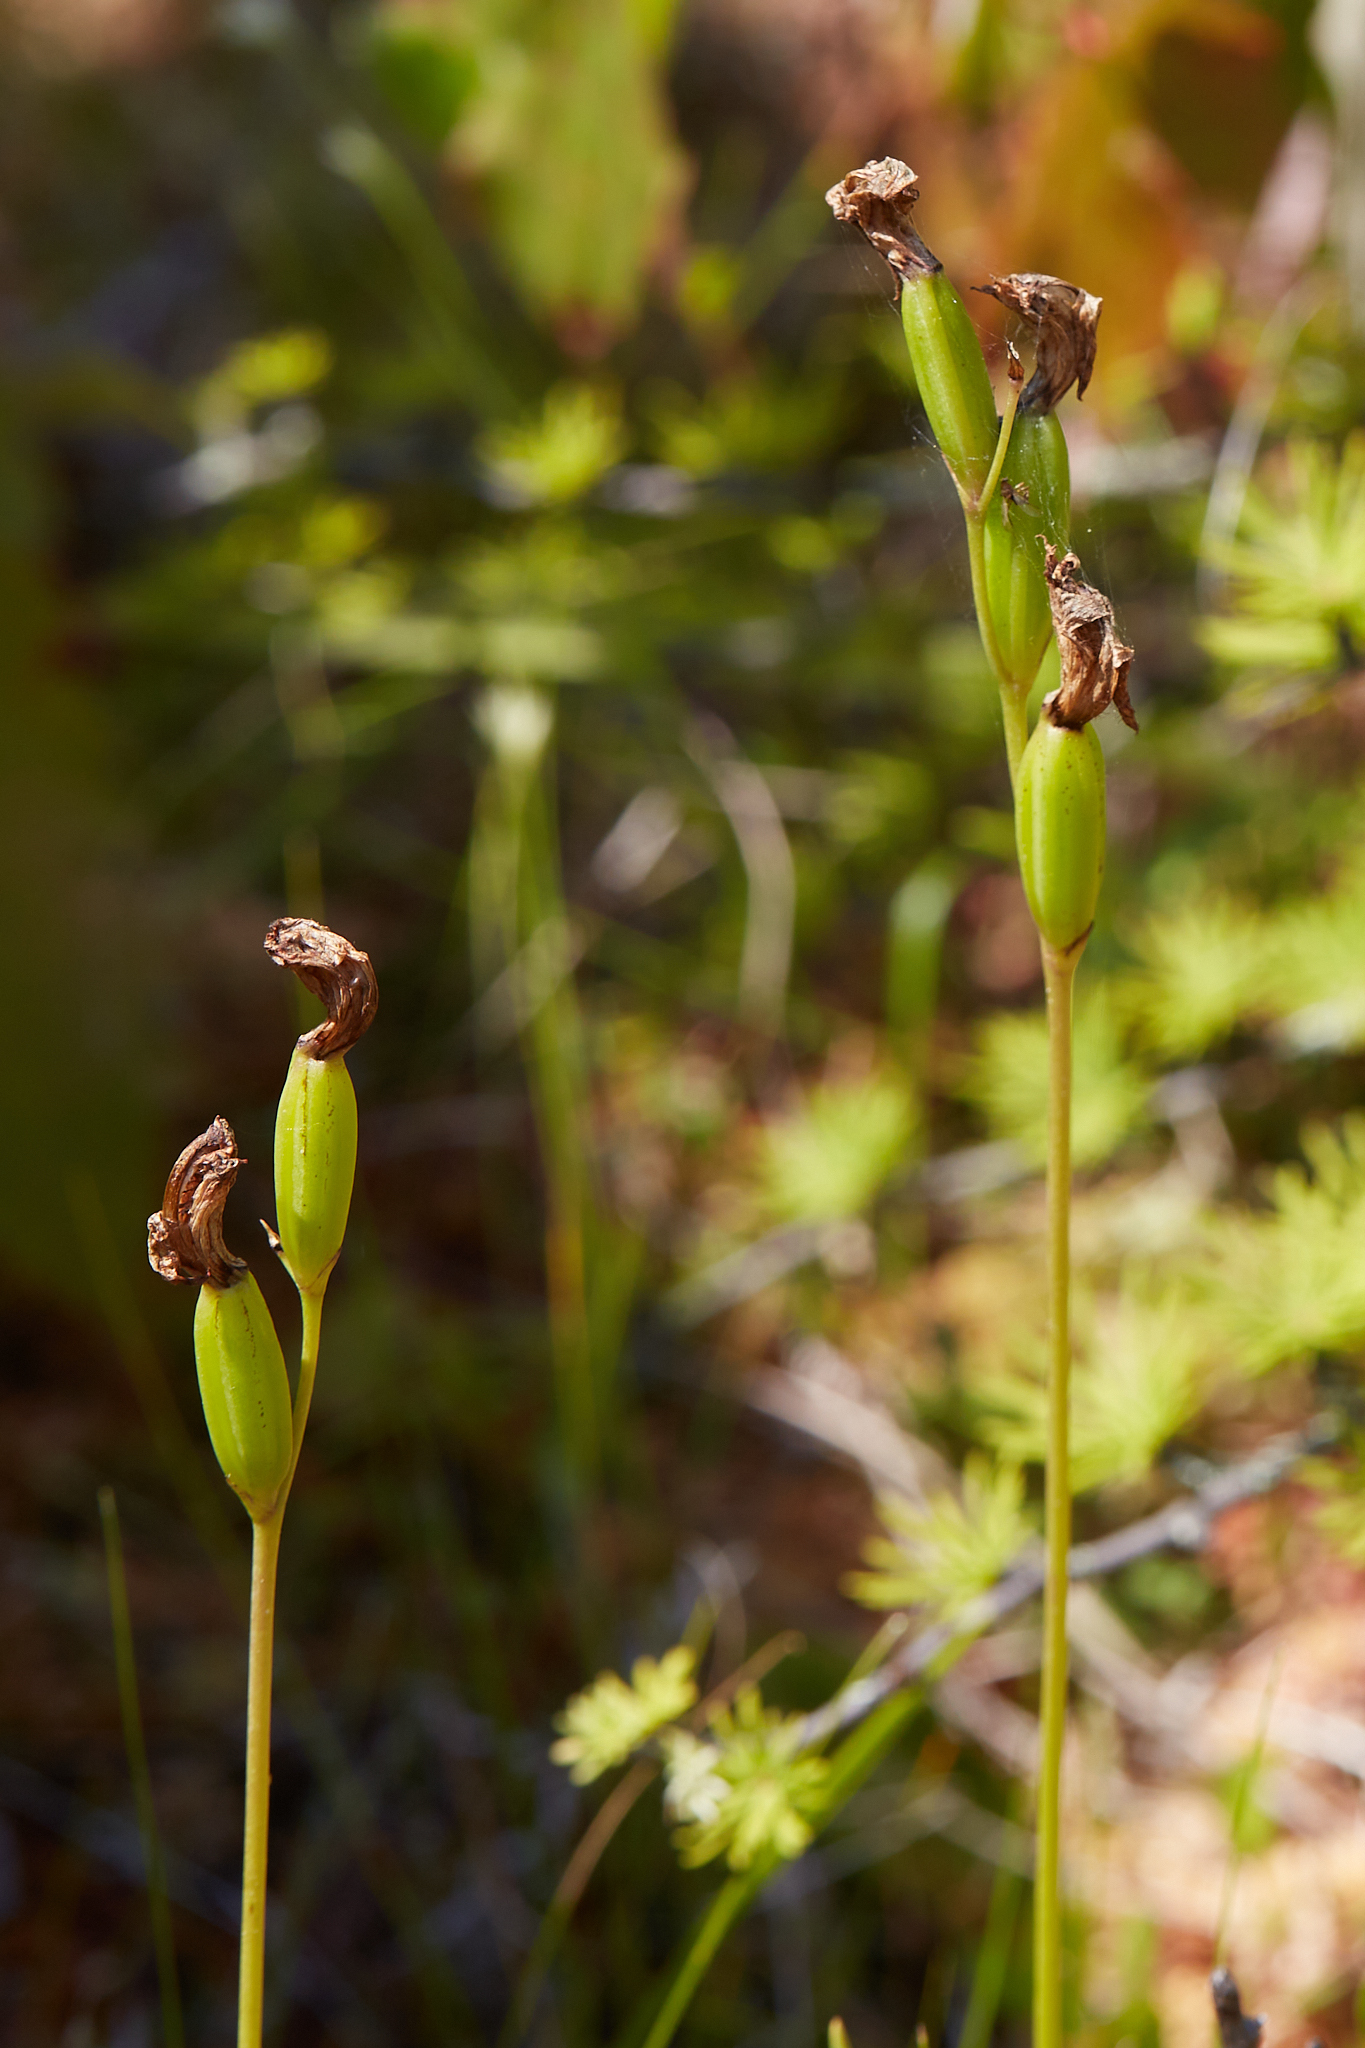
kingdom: Plantae
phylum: Tracheophyta
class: Liliopsida
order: Asparagales
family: Orchidaceae
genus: Calopogon
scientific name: Calopogon tuberosus
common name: Grass-pink
